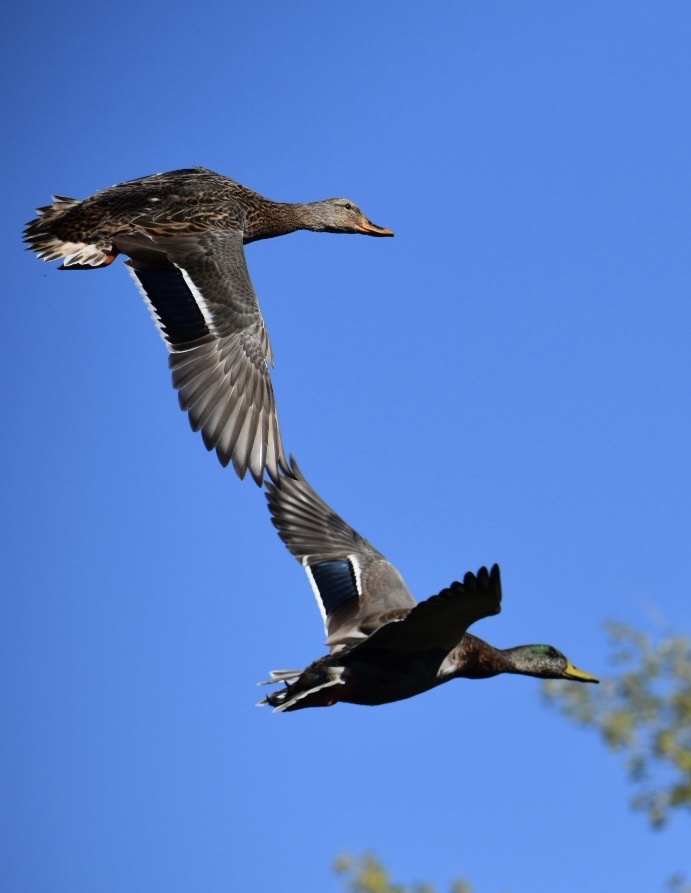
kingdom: Animalia
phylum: Chordata
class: Aves
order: Anseriformes
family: Anatidae
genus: Anas
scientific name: Anas platyrhynchos
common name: Mallard
